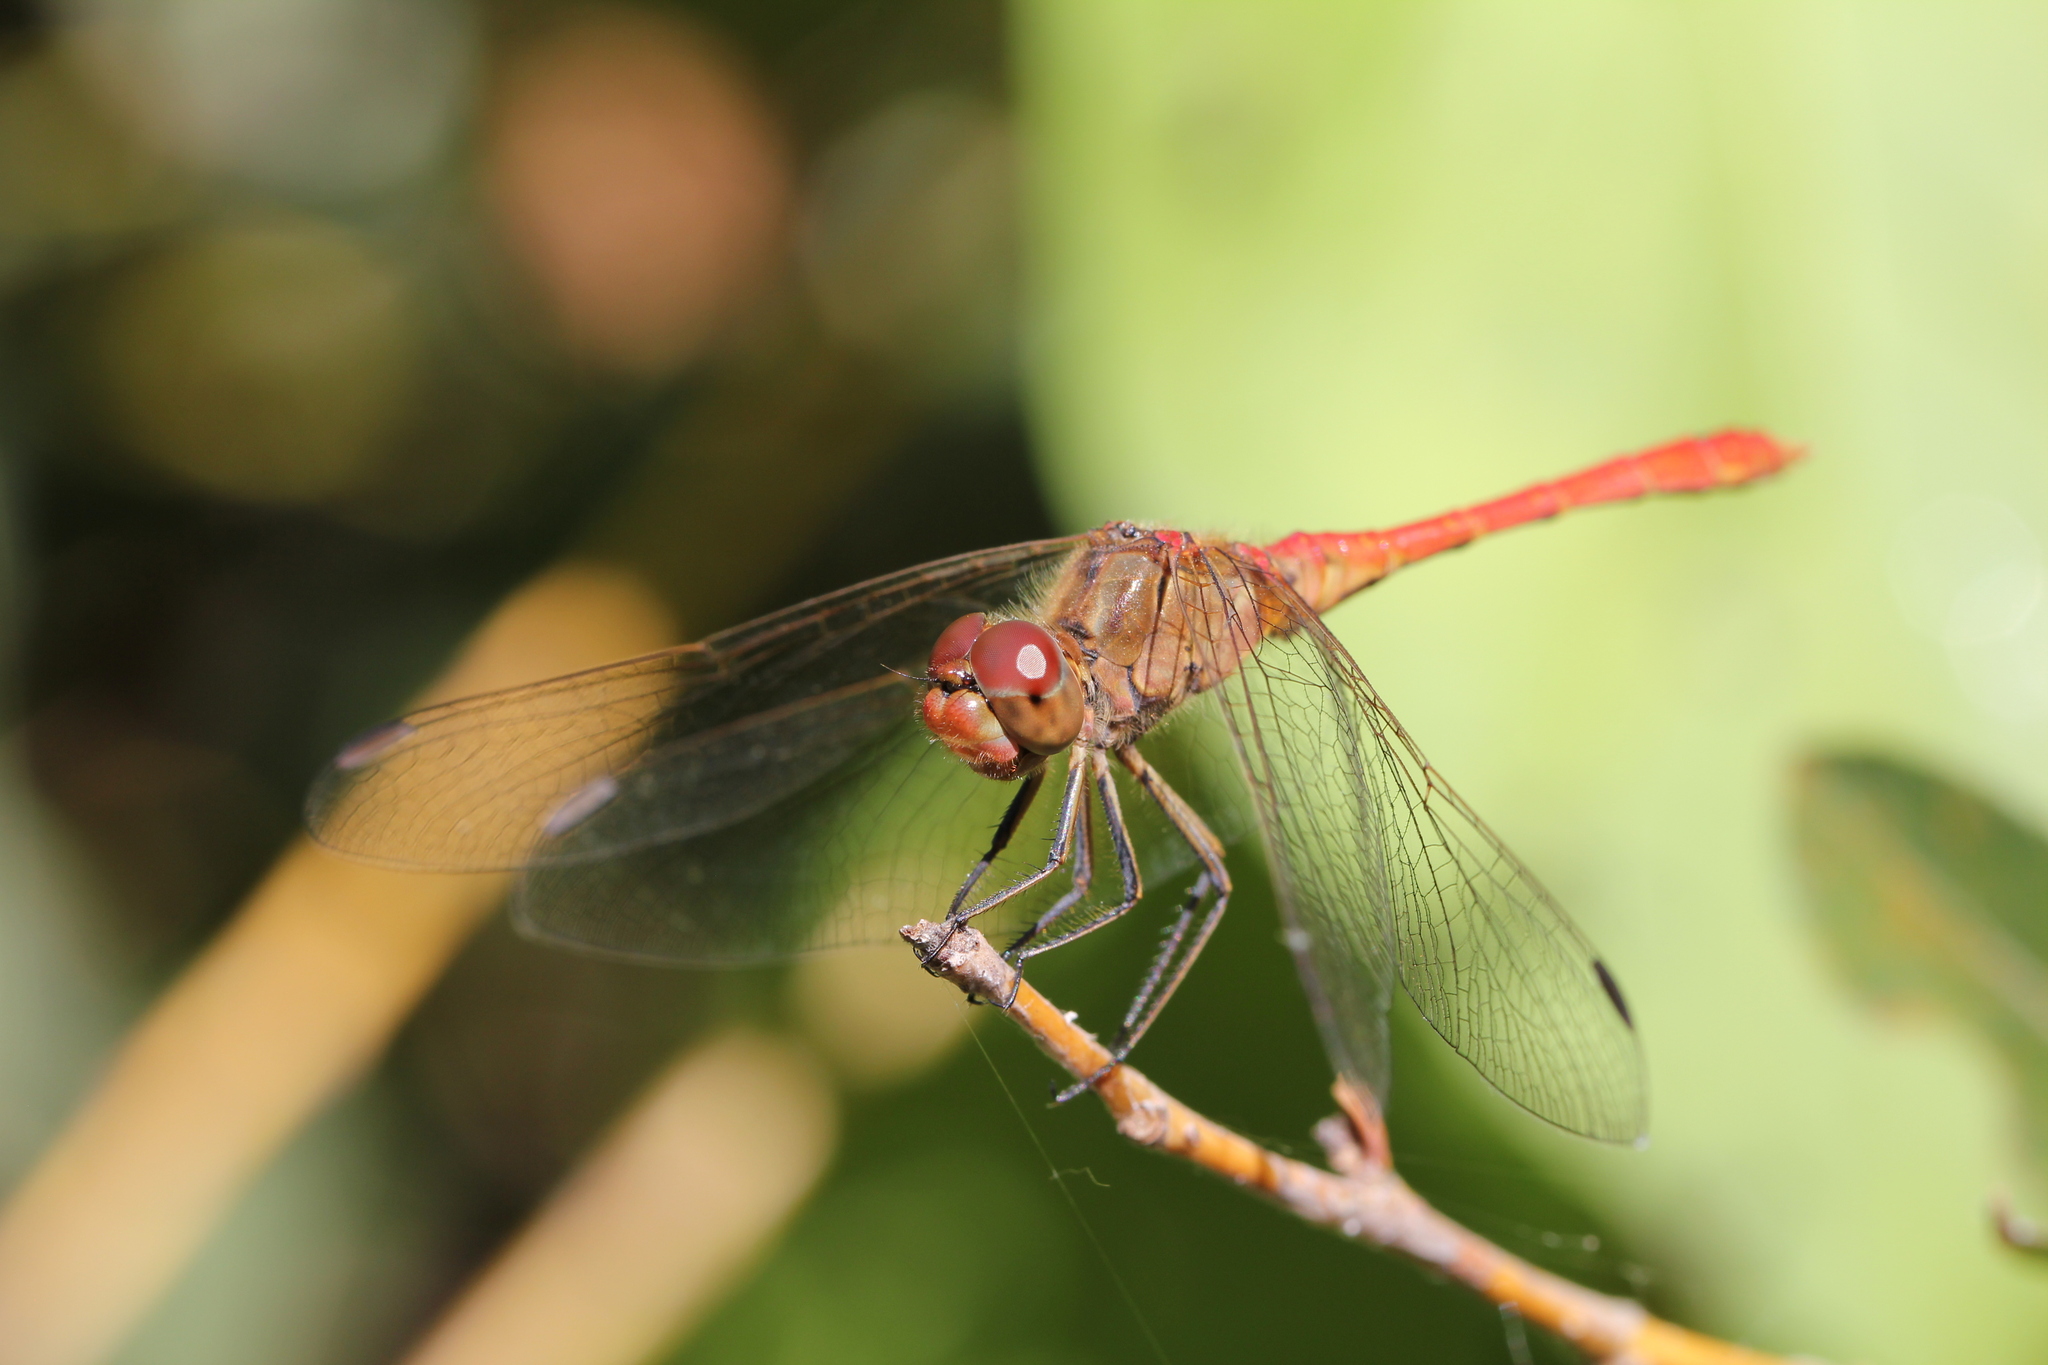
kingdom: Animalia
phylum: Arthropoda
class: Insecta
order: Odonata
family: Libellulidae
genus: Sympetrum
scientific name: Sympetrum meridionale
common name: Southern darter
